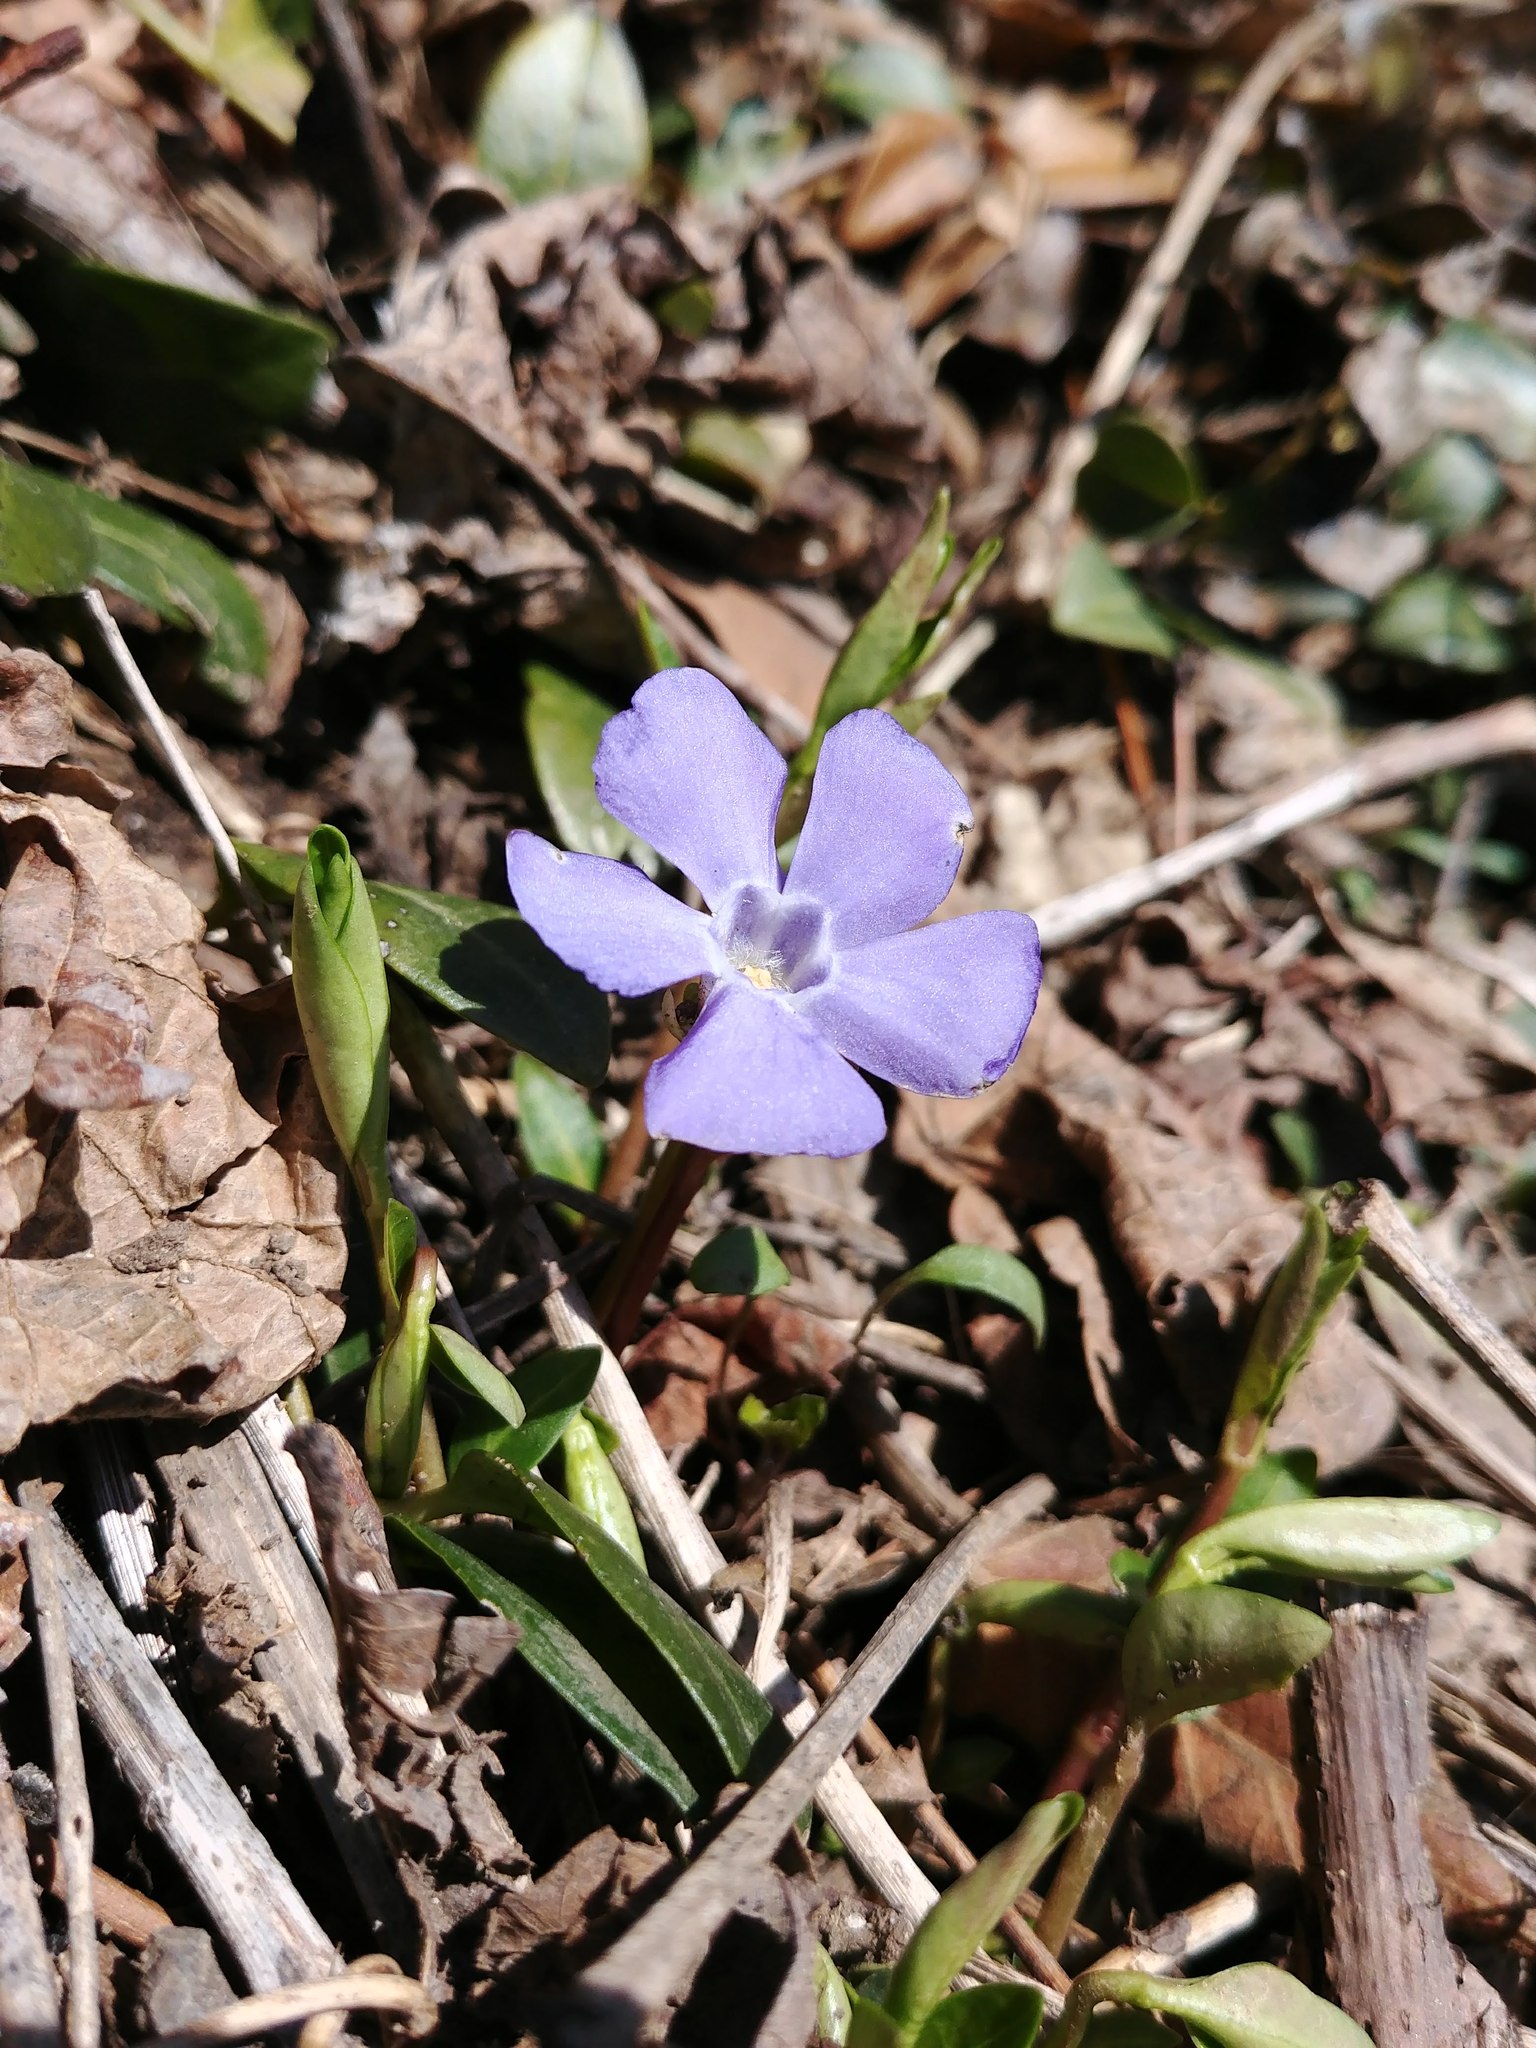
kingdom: Plantae
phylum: Tracheophyta
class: Magnoliopsida
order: Gentianales
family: Apocynaceae
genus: Vinca
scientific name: Vinca minor
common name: Lesser periwinkle
